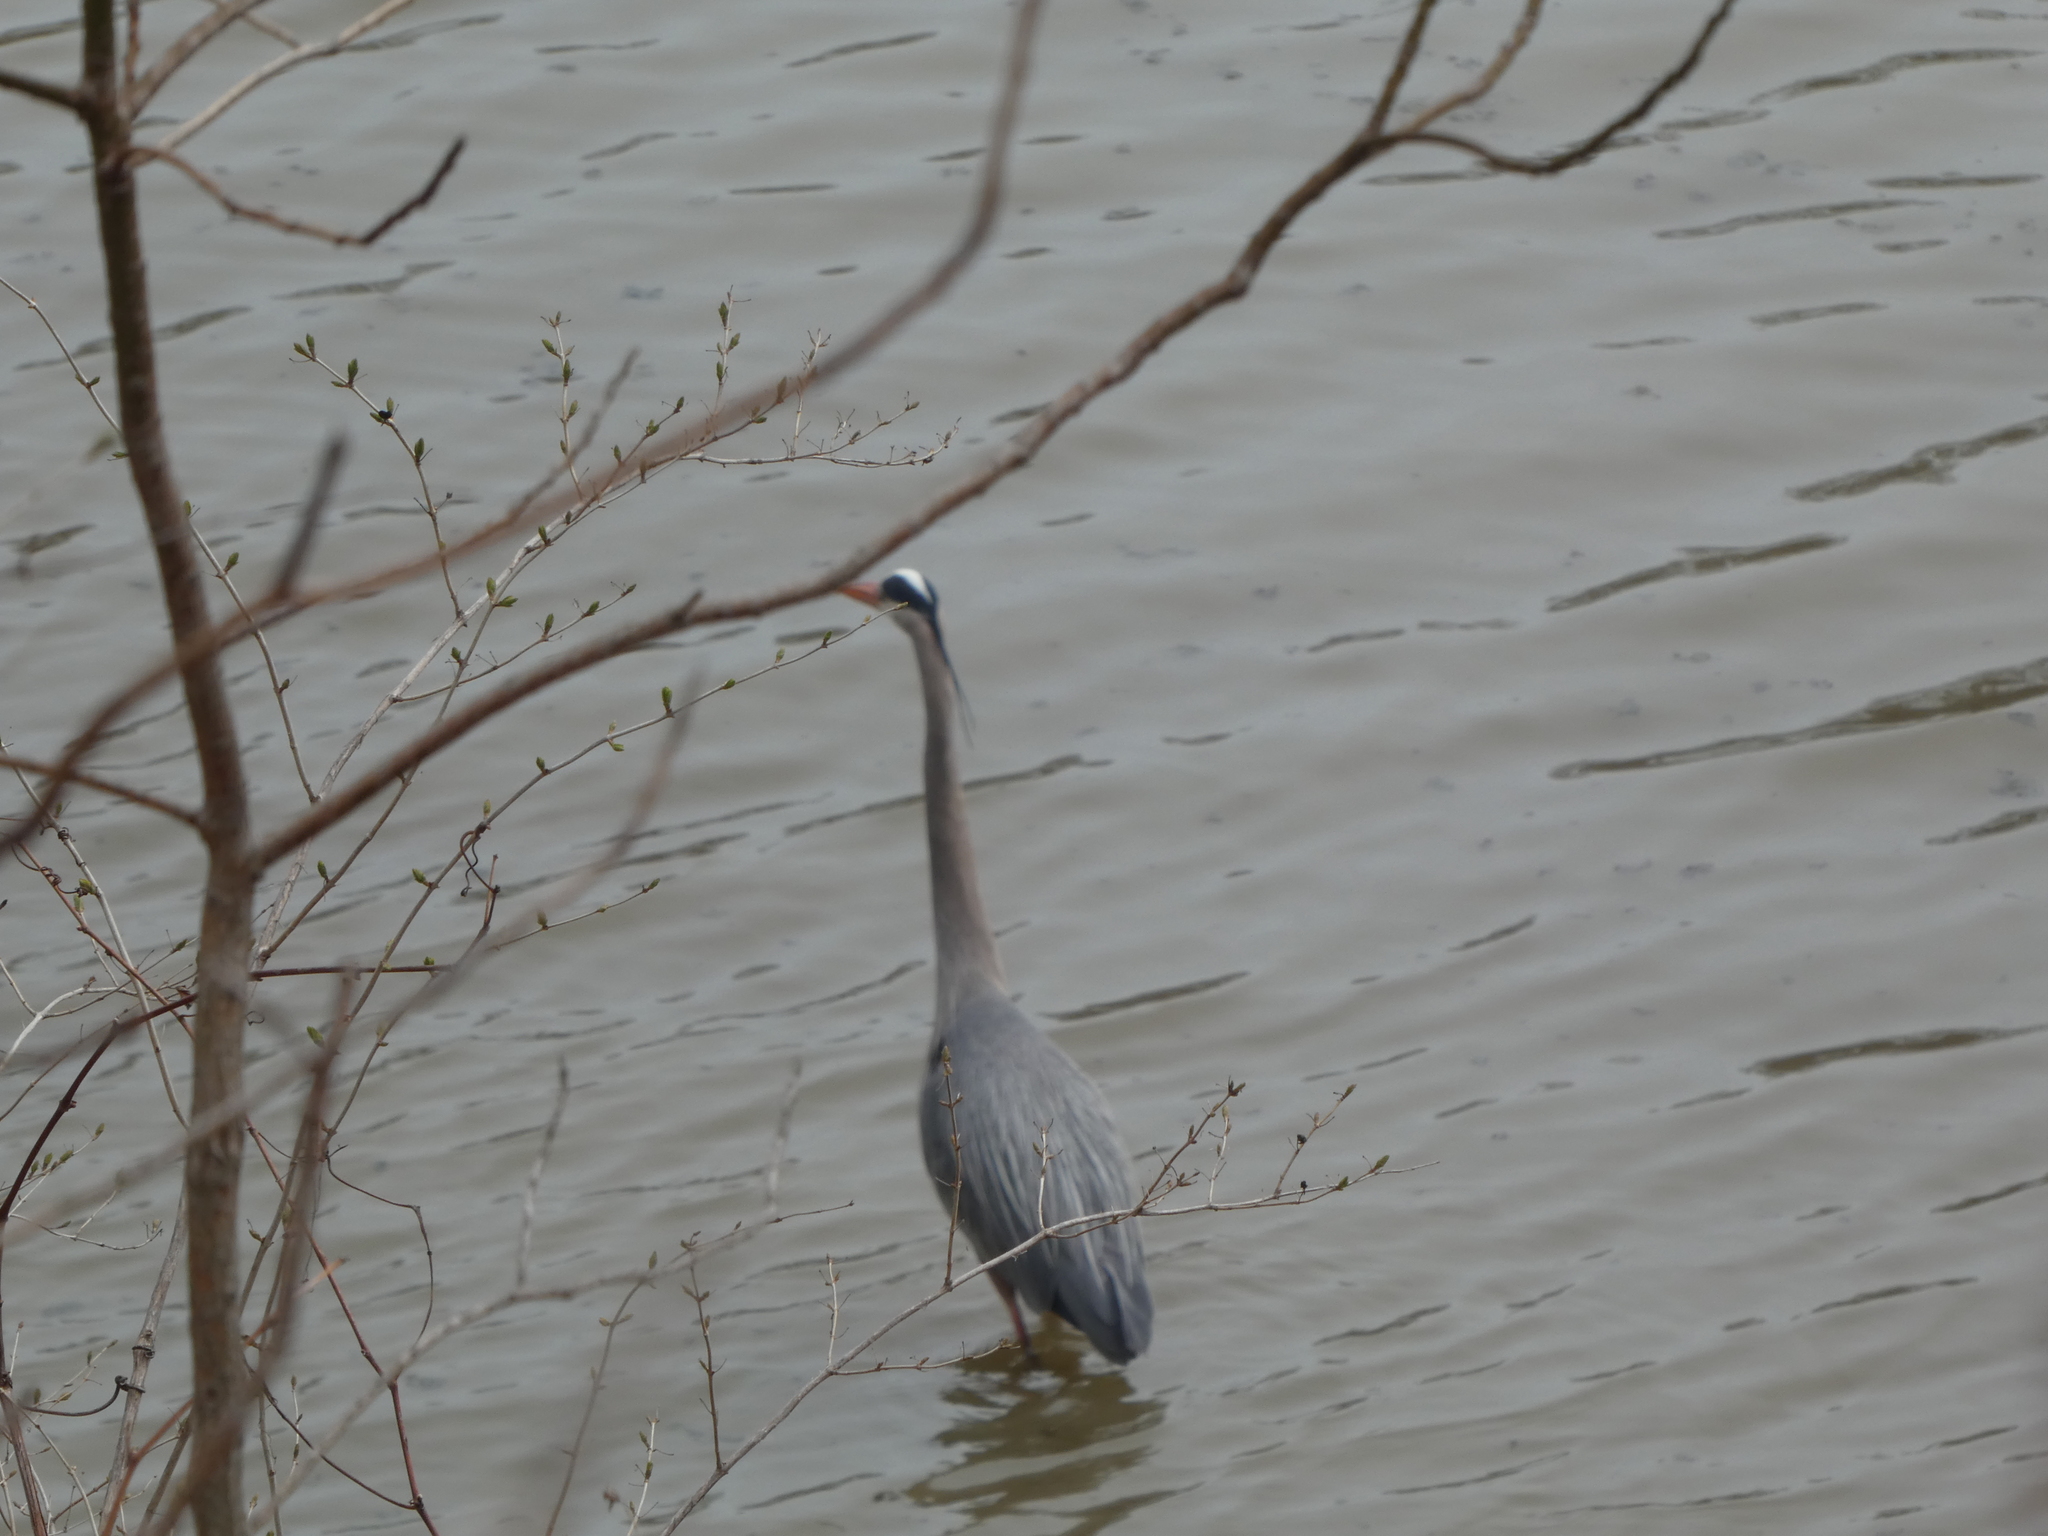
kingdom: Animalia
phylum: Chordata
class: Aves
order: Pelecaniformes
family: Ardeidae
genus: Ardea
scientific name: Ardea herodias
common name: Great blue heron
